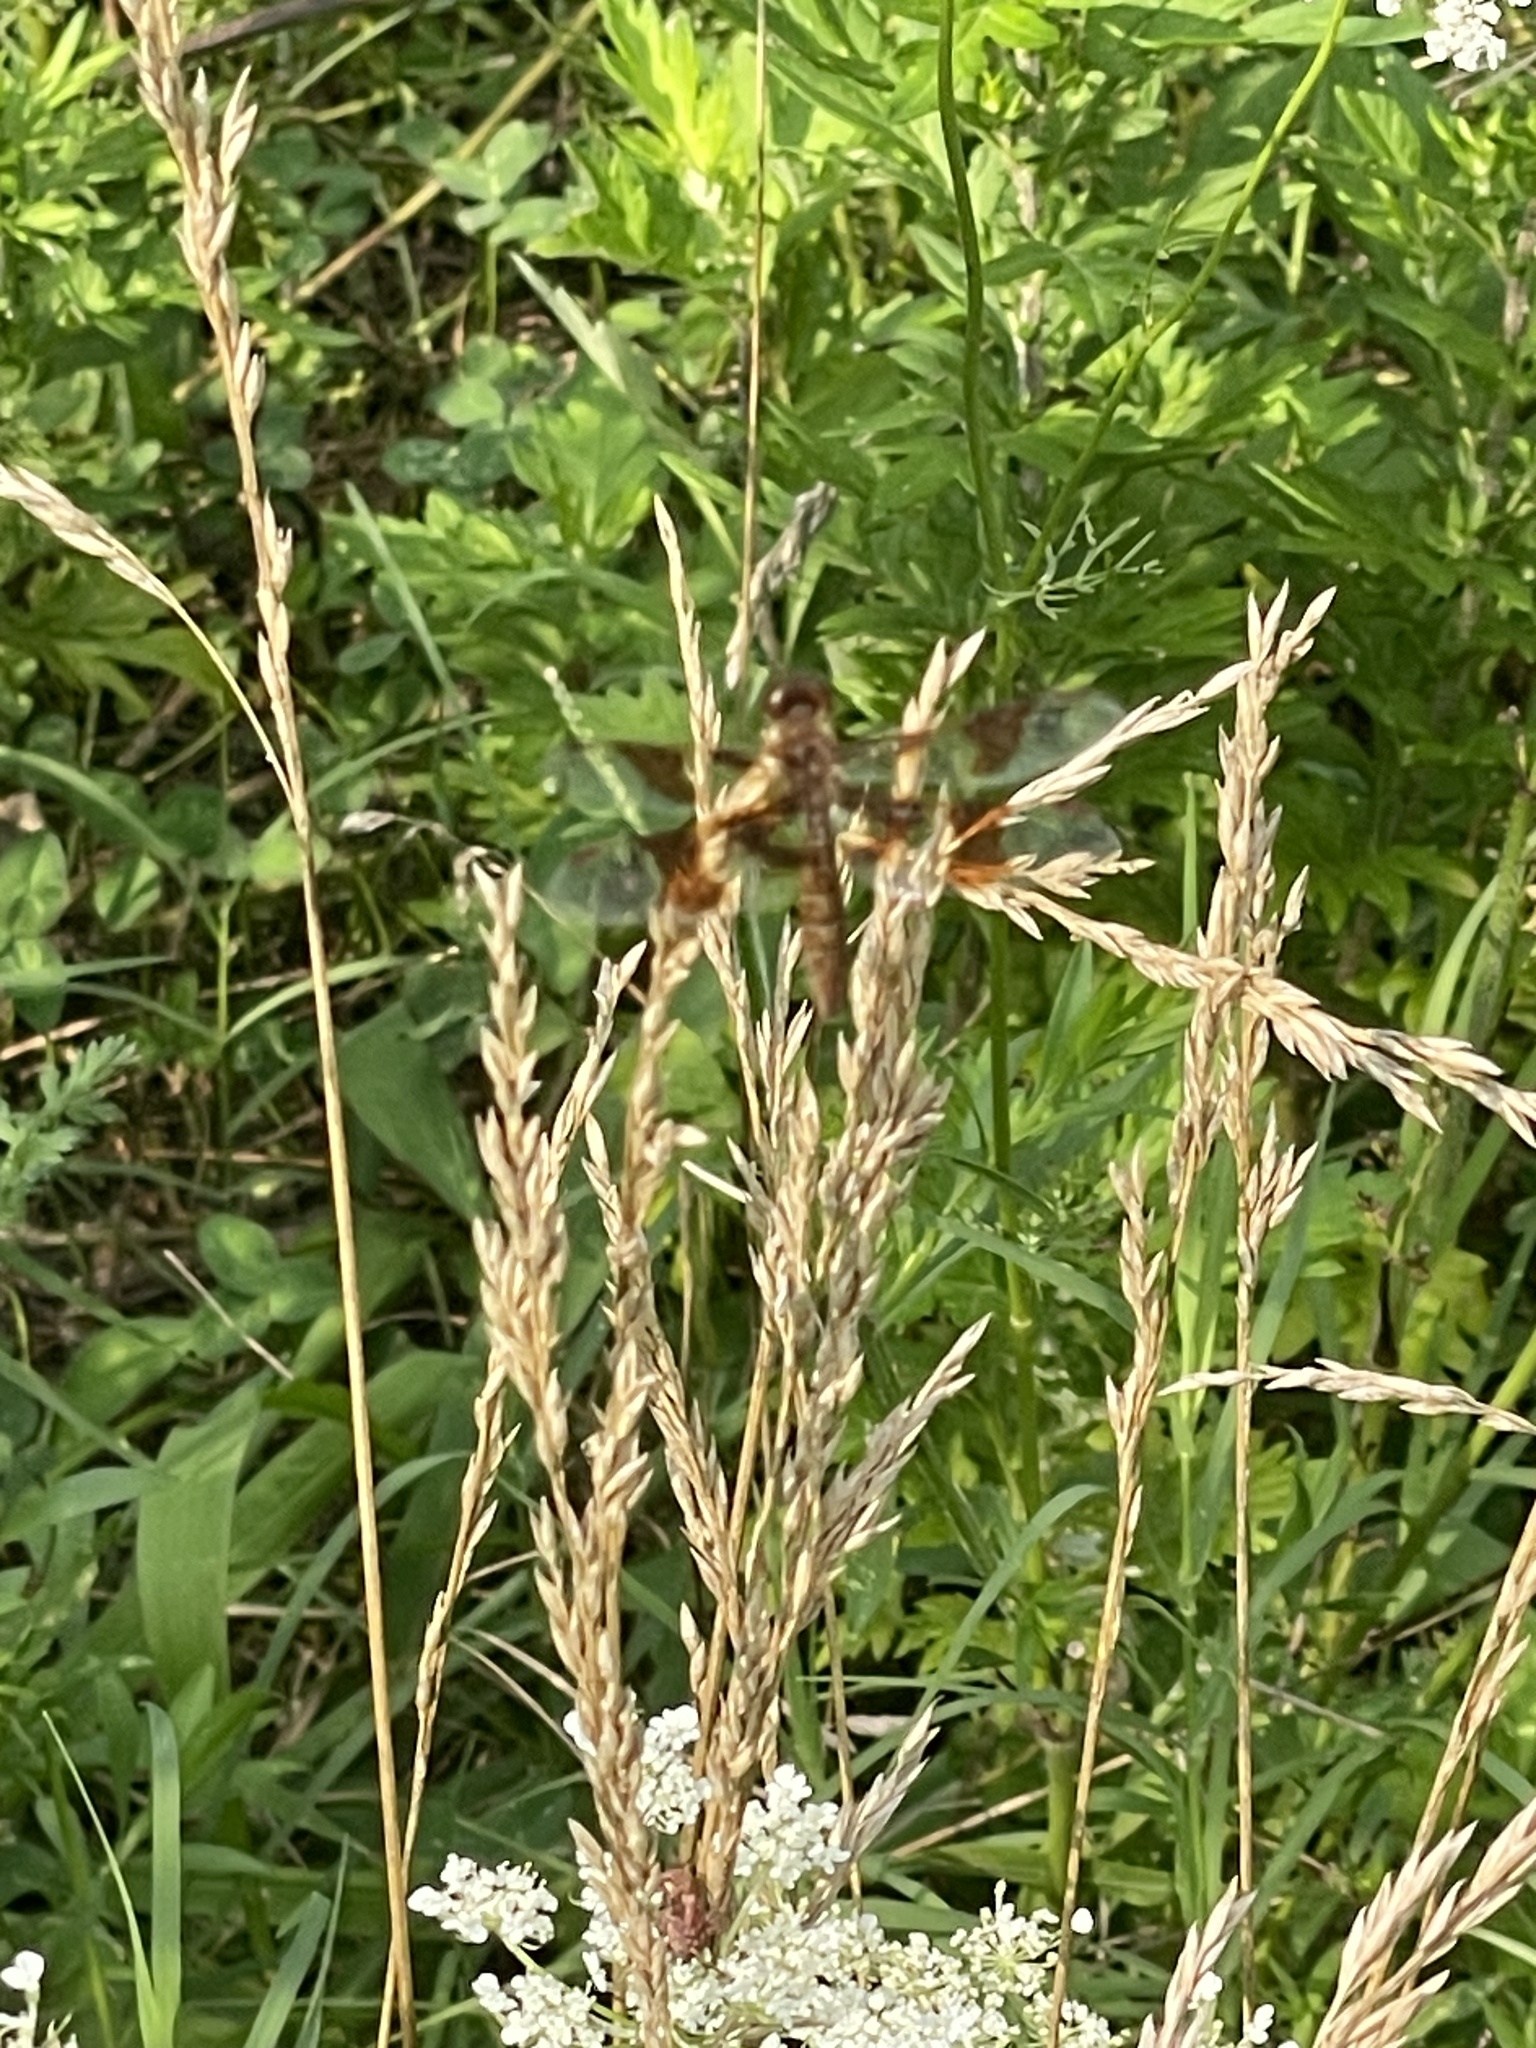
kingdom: Animalia
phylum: Arthropoda
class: Insecta
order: Odonata
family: Libellulidae
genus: Perithemis
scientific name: Perithemis tenera
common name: Eastern amberwing
